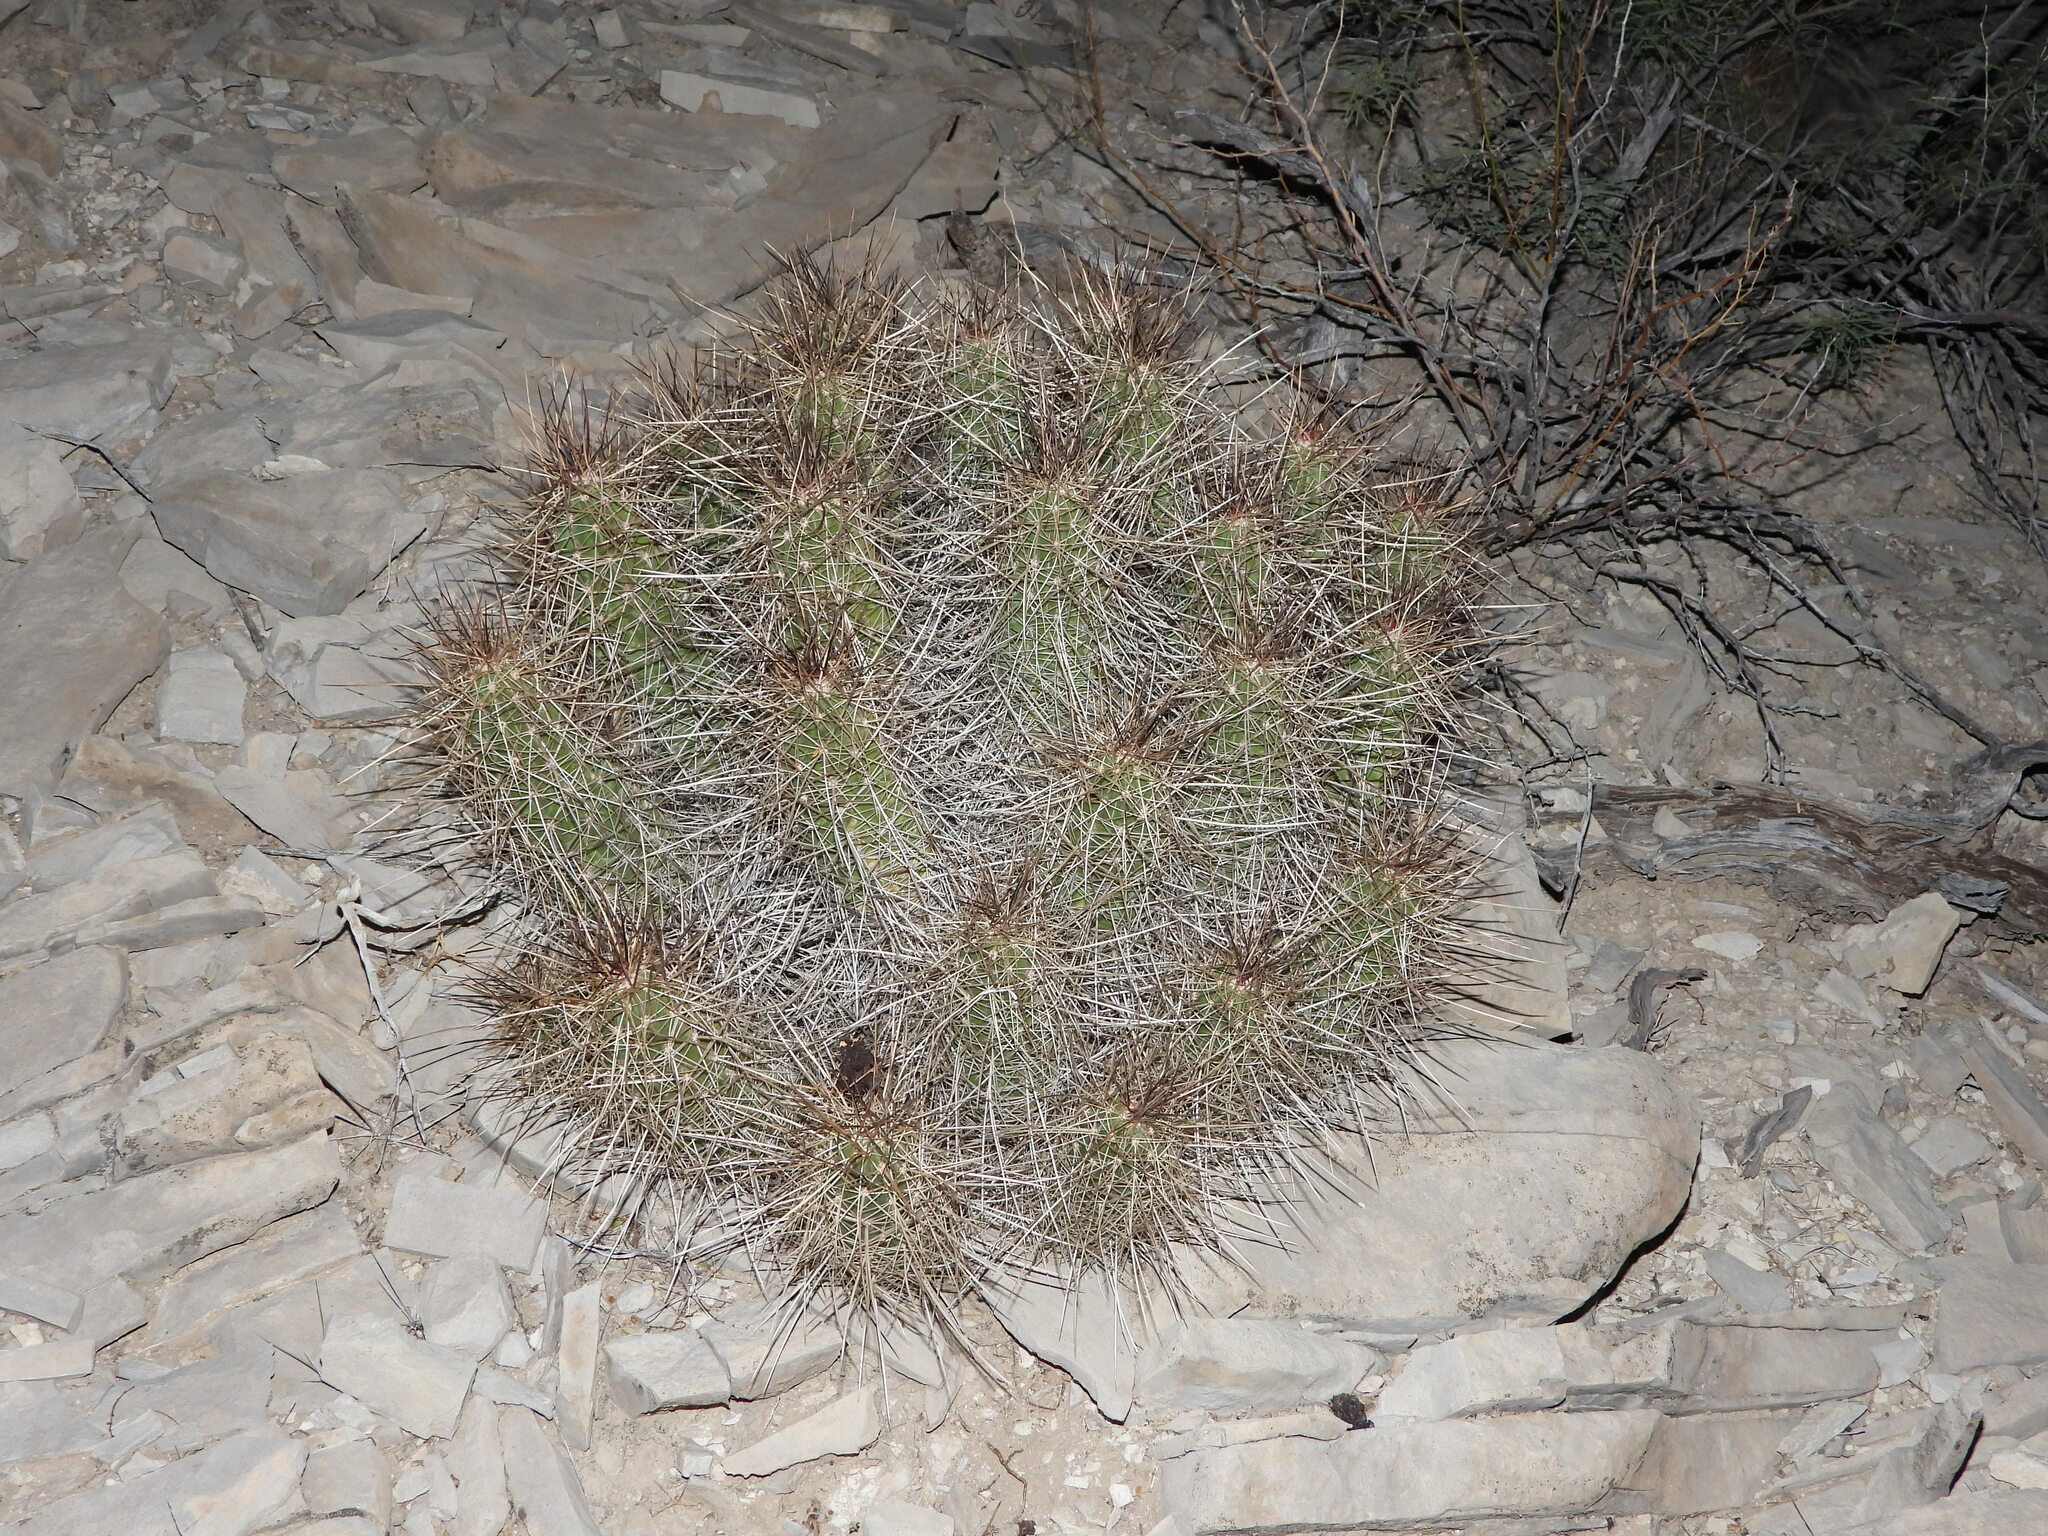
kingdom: Plantae
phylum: Tracheophyta
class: Magnoliopsida
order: Caryophyllales
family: Cactaceae
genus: Echinocereus
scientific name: Echinocereus stramineus
